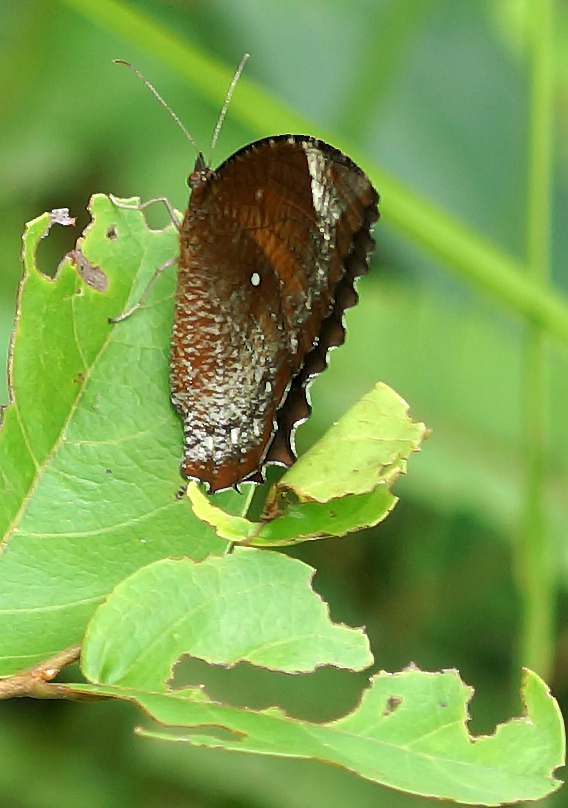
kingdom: Animalia
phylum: Arthropoda
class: Insecta
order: Lepidoptera
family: Nymphalidae
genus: Elymnias
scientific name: Elymnias hypermnestra
